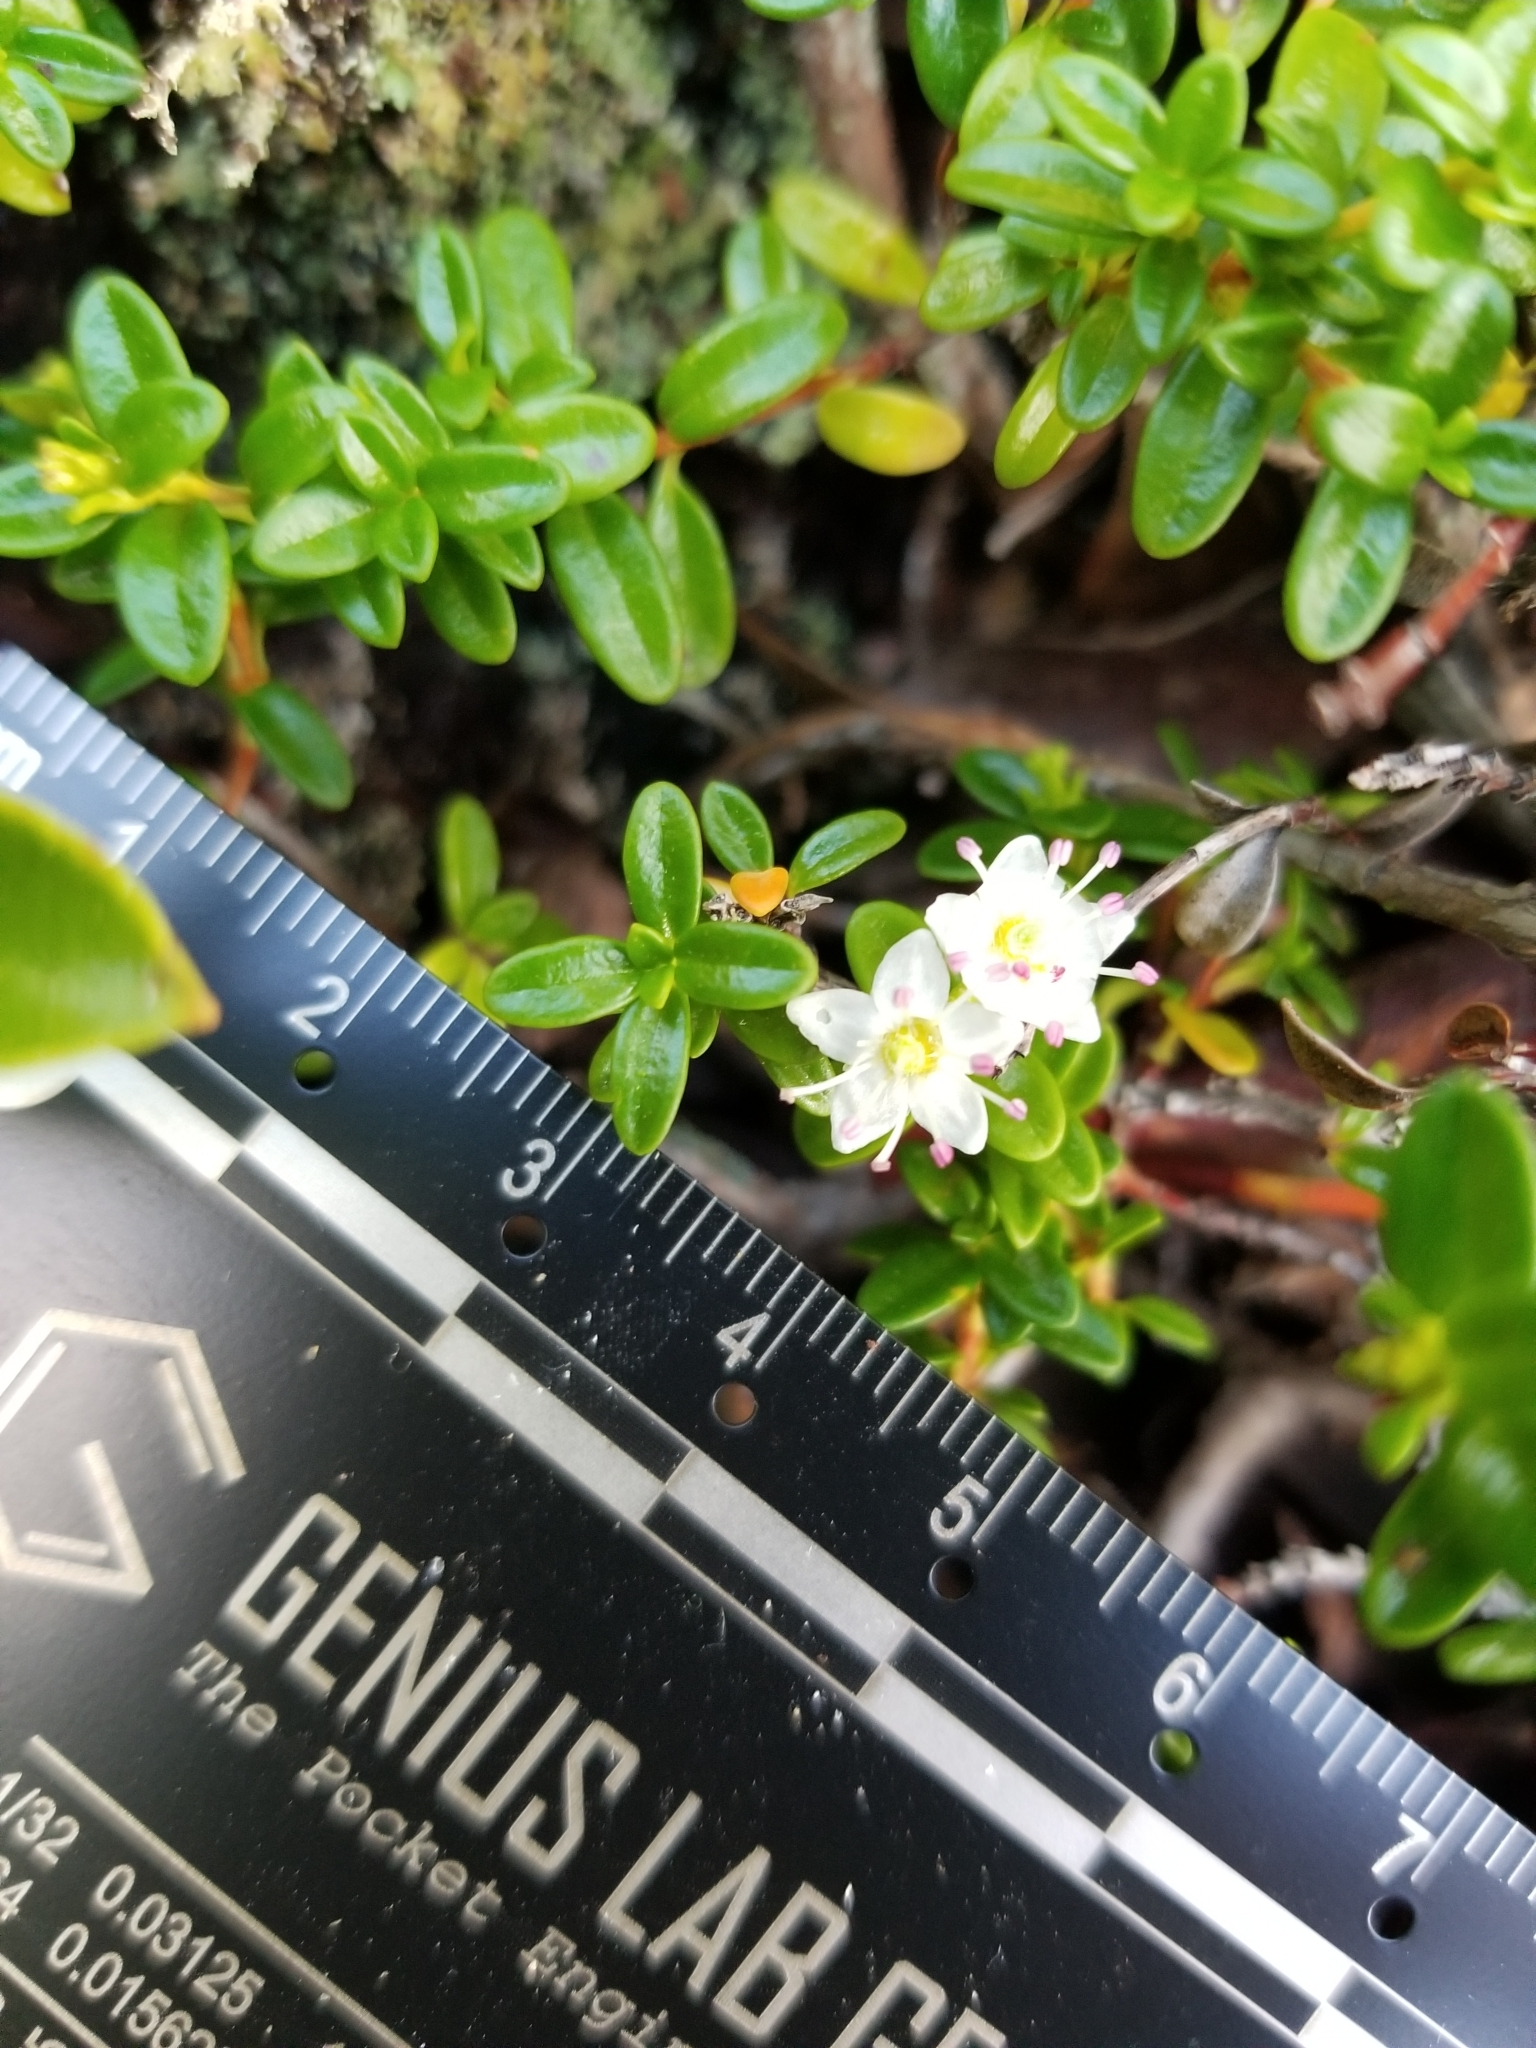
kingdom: Plantae
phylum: Tracheophyta
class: Magnoliopsida
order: Ericales
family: Ericaceae
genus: Kalmia
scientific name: Kalmia buxifolia
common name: Sandmyrtle
